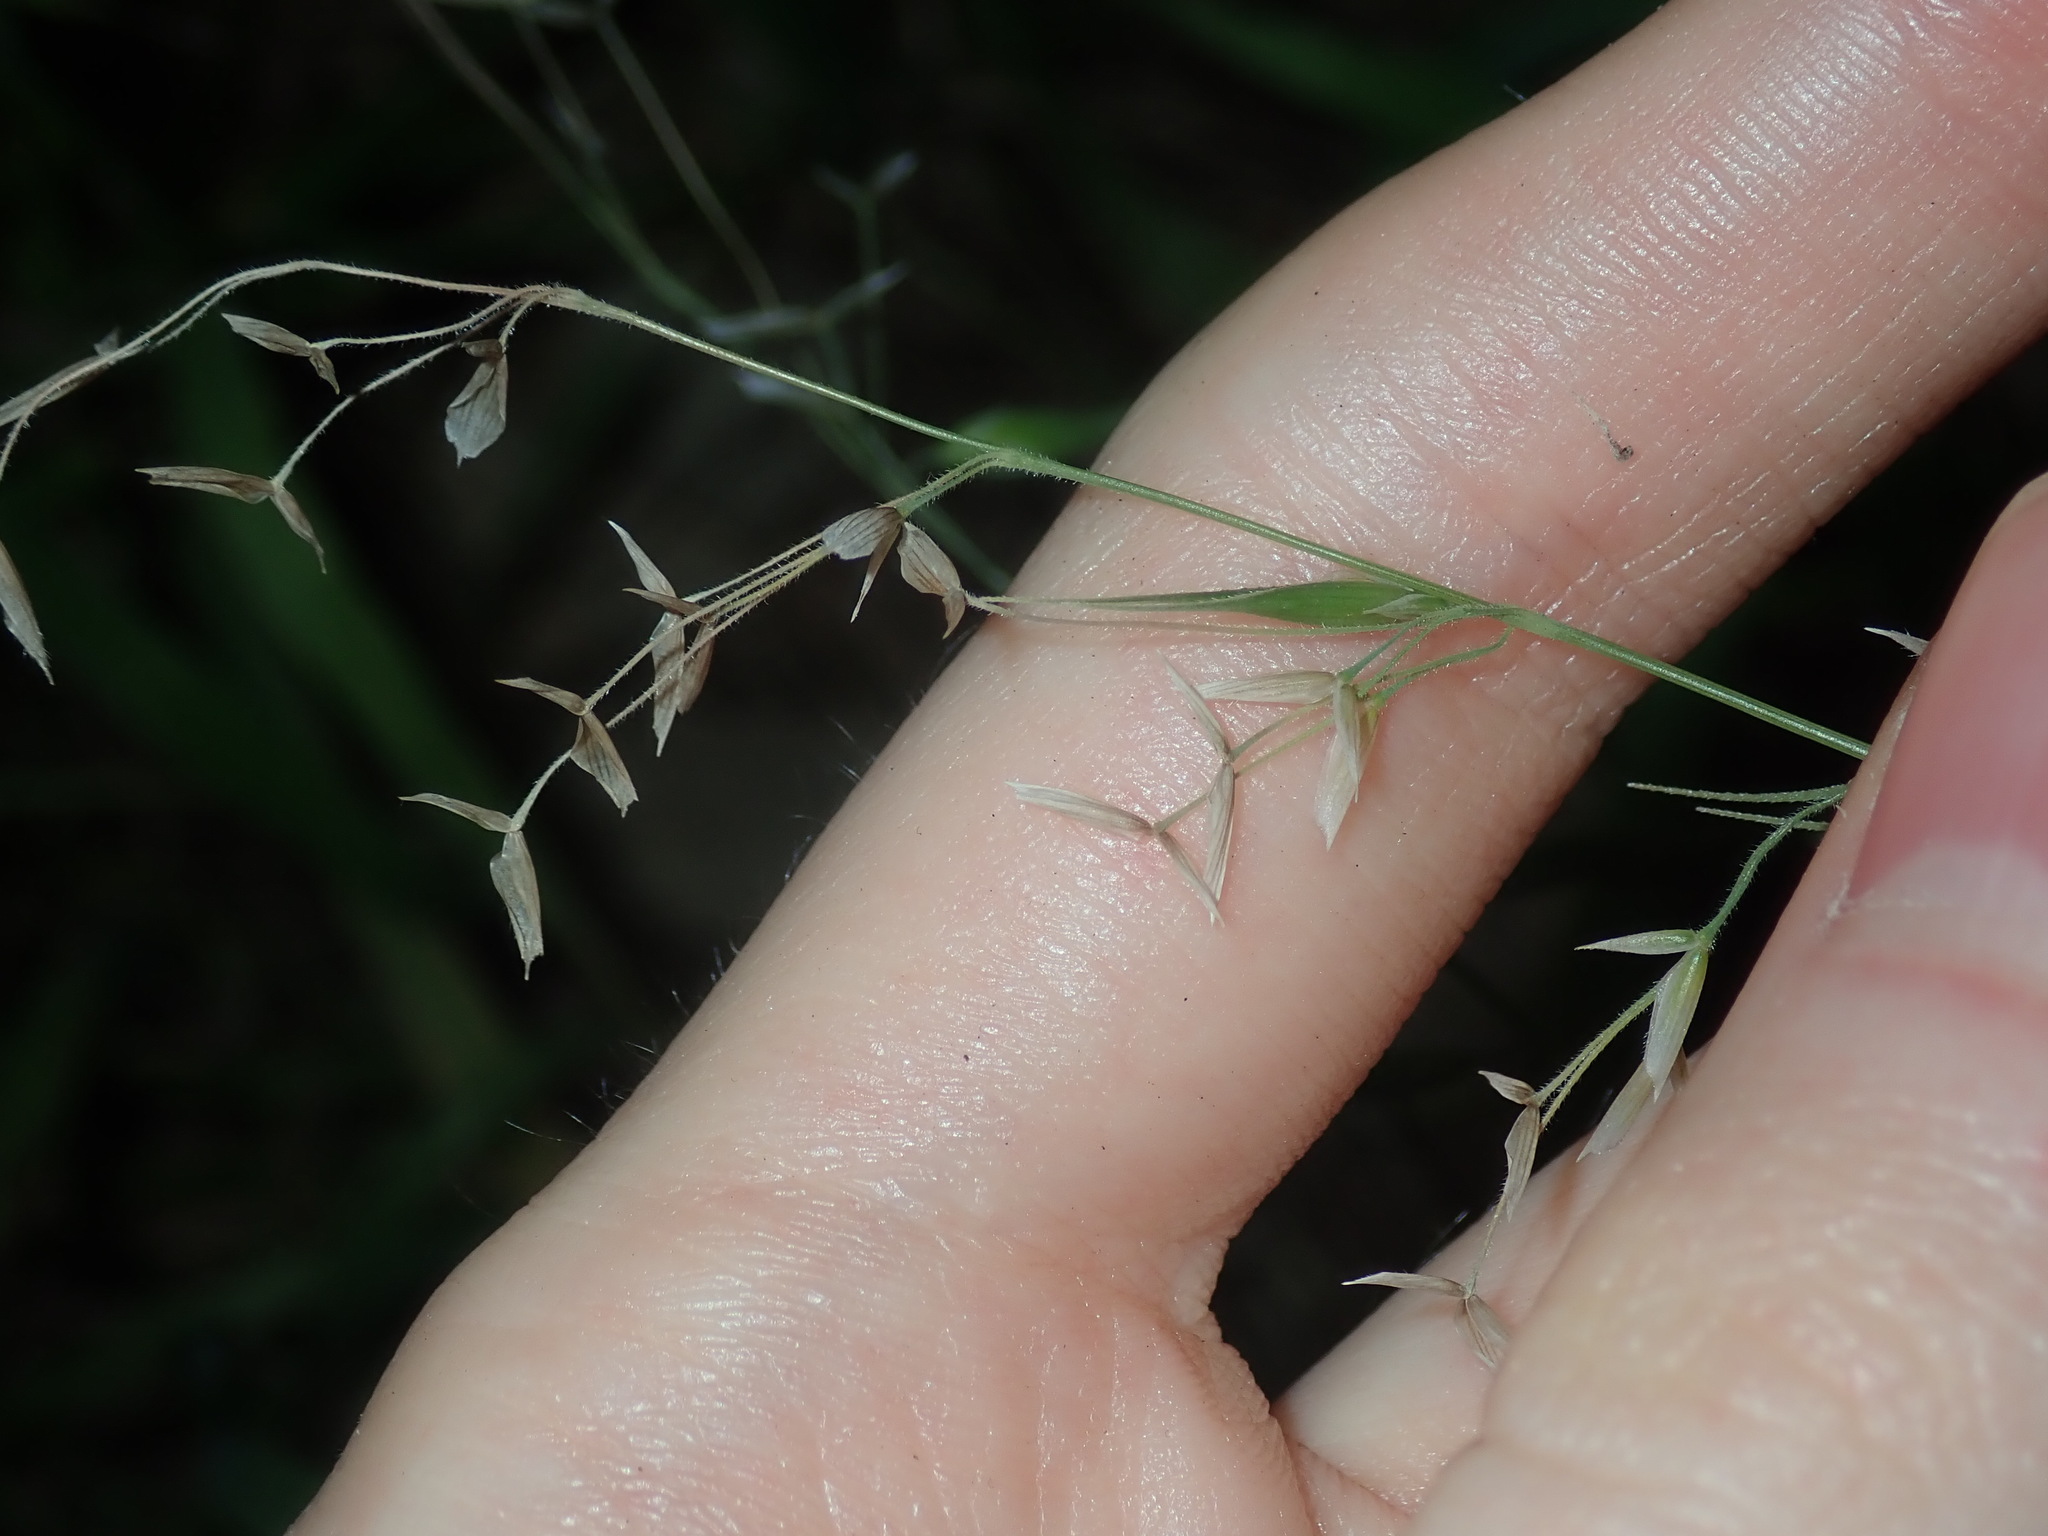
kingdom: Plantae
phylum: Tracheophyta
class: Liliopsida
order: Poales
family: Poaceae
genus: Ehrharta
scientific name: Ehrharta longiflora
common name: Longflowered veldtgrass
